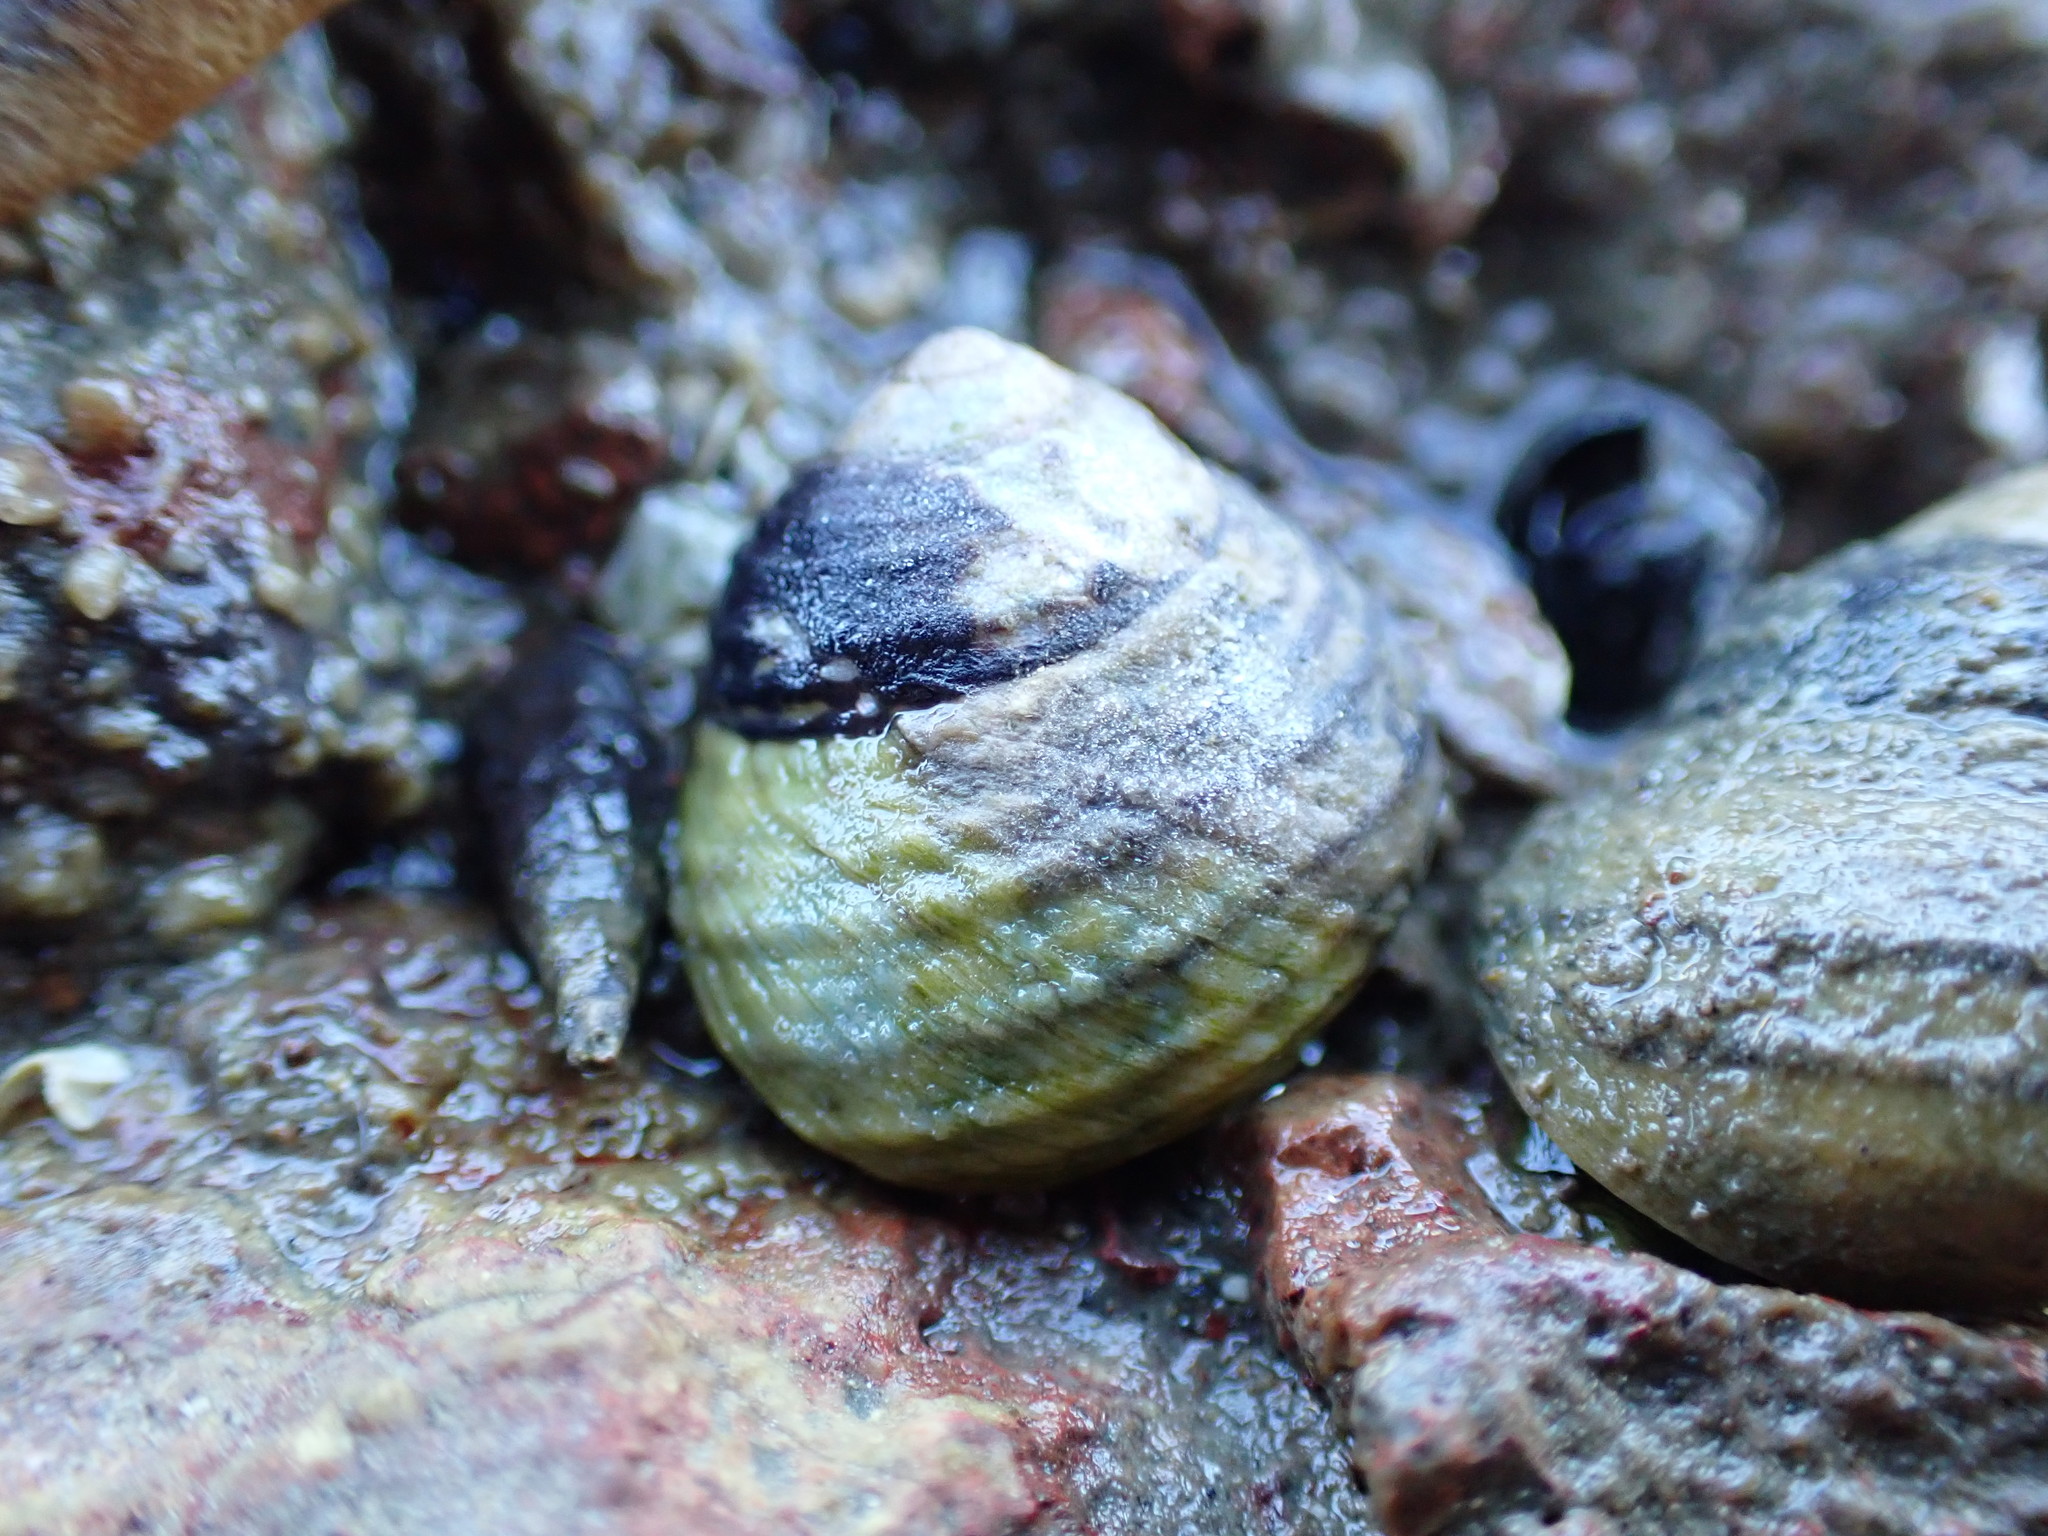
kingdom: Animalia
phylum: Mollusca
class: Gastropoda
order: Trochida
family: Trochidae
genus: Diloma
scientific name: Diloma subrostratum
